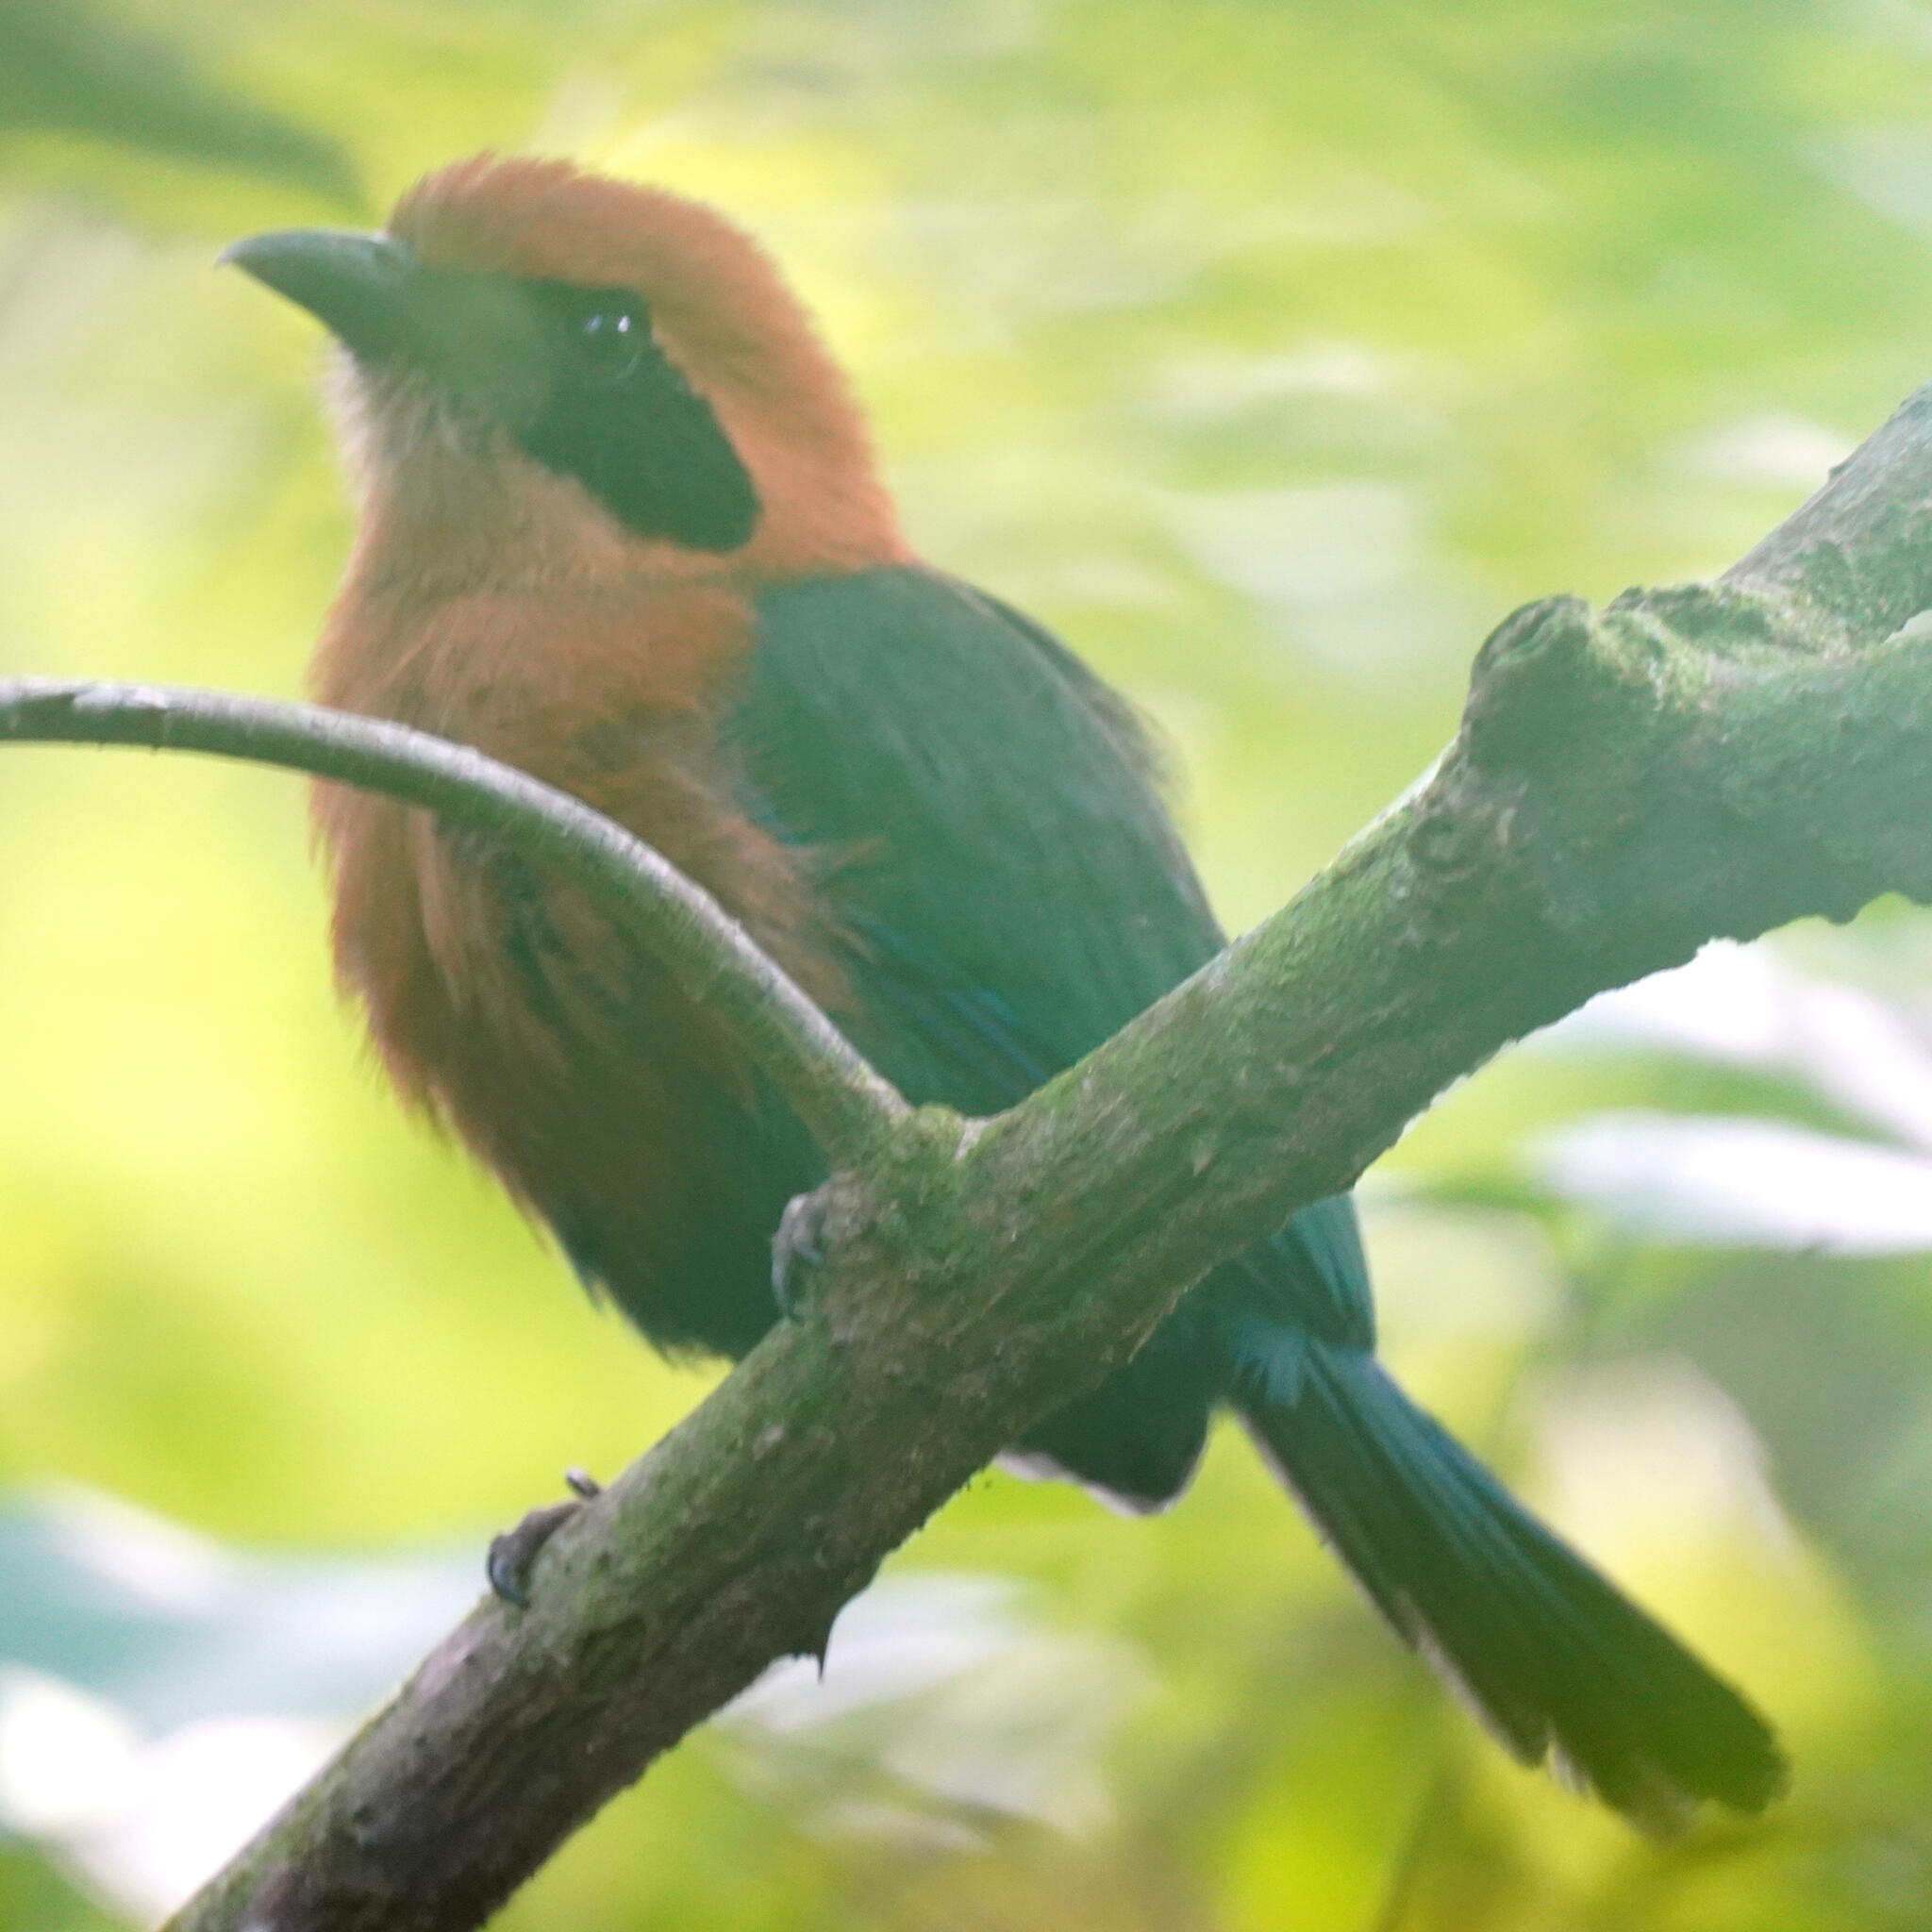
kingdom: Animalia
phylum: Chordata
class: Aves
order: Coraciiformes
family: Momotidae
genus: Baryphthengus
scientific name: Baryphthengus martii
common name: Rufous motmot
